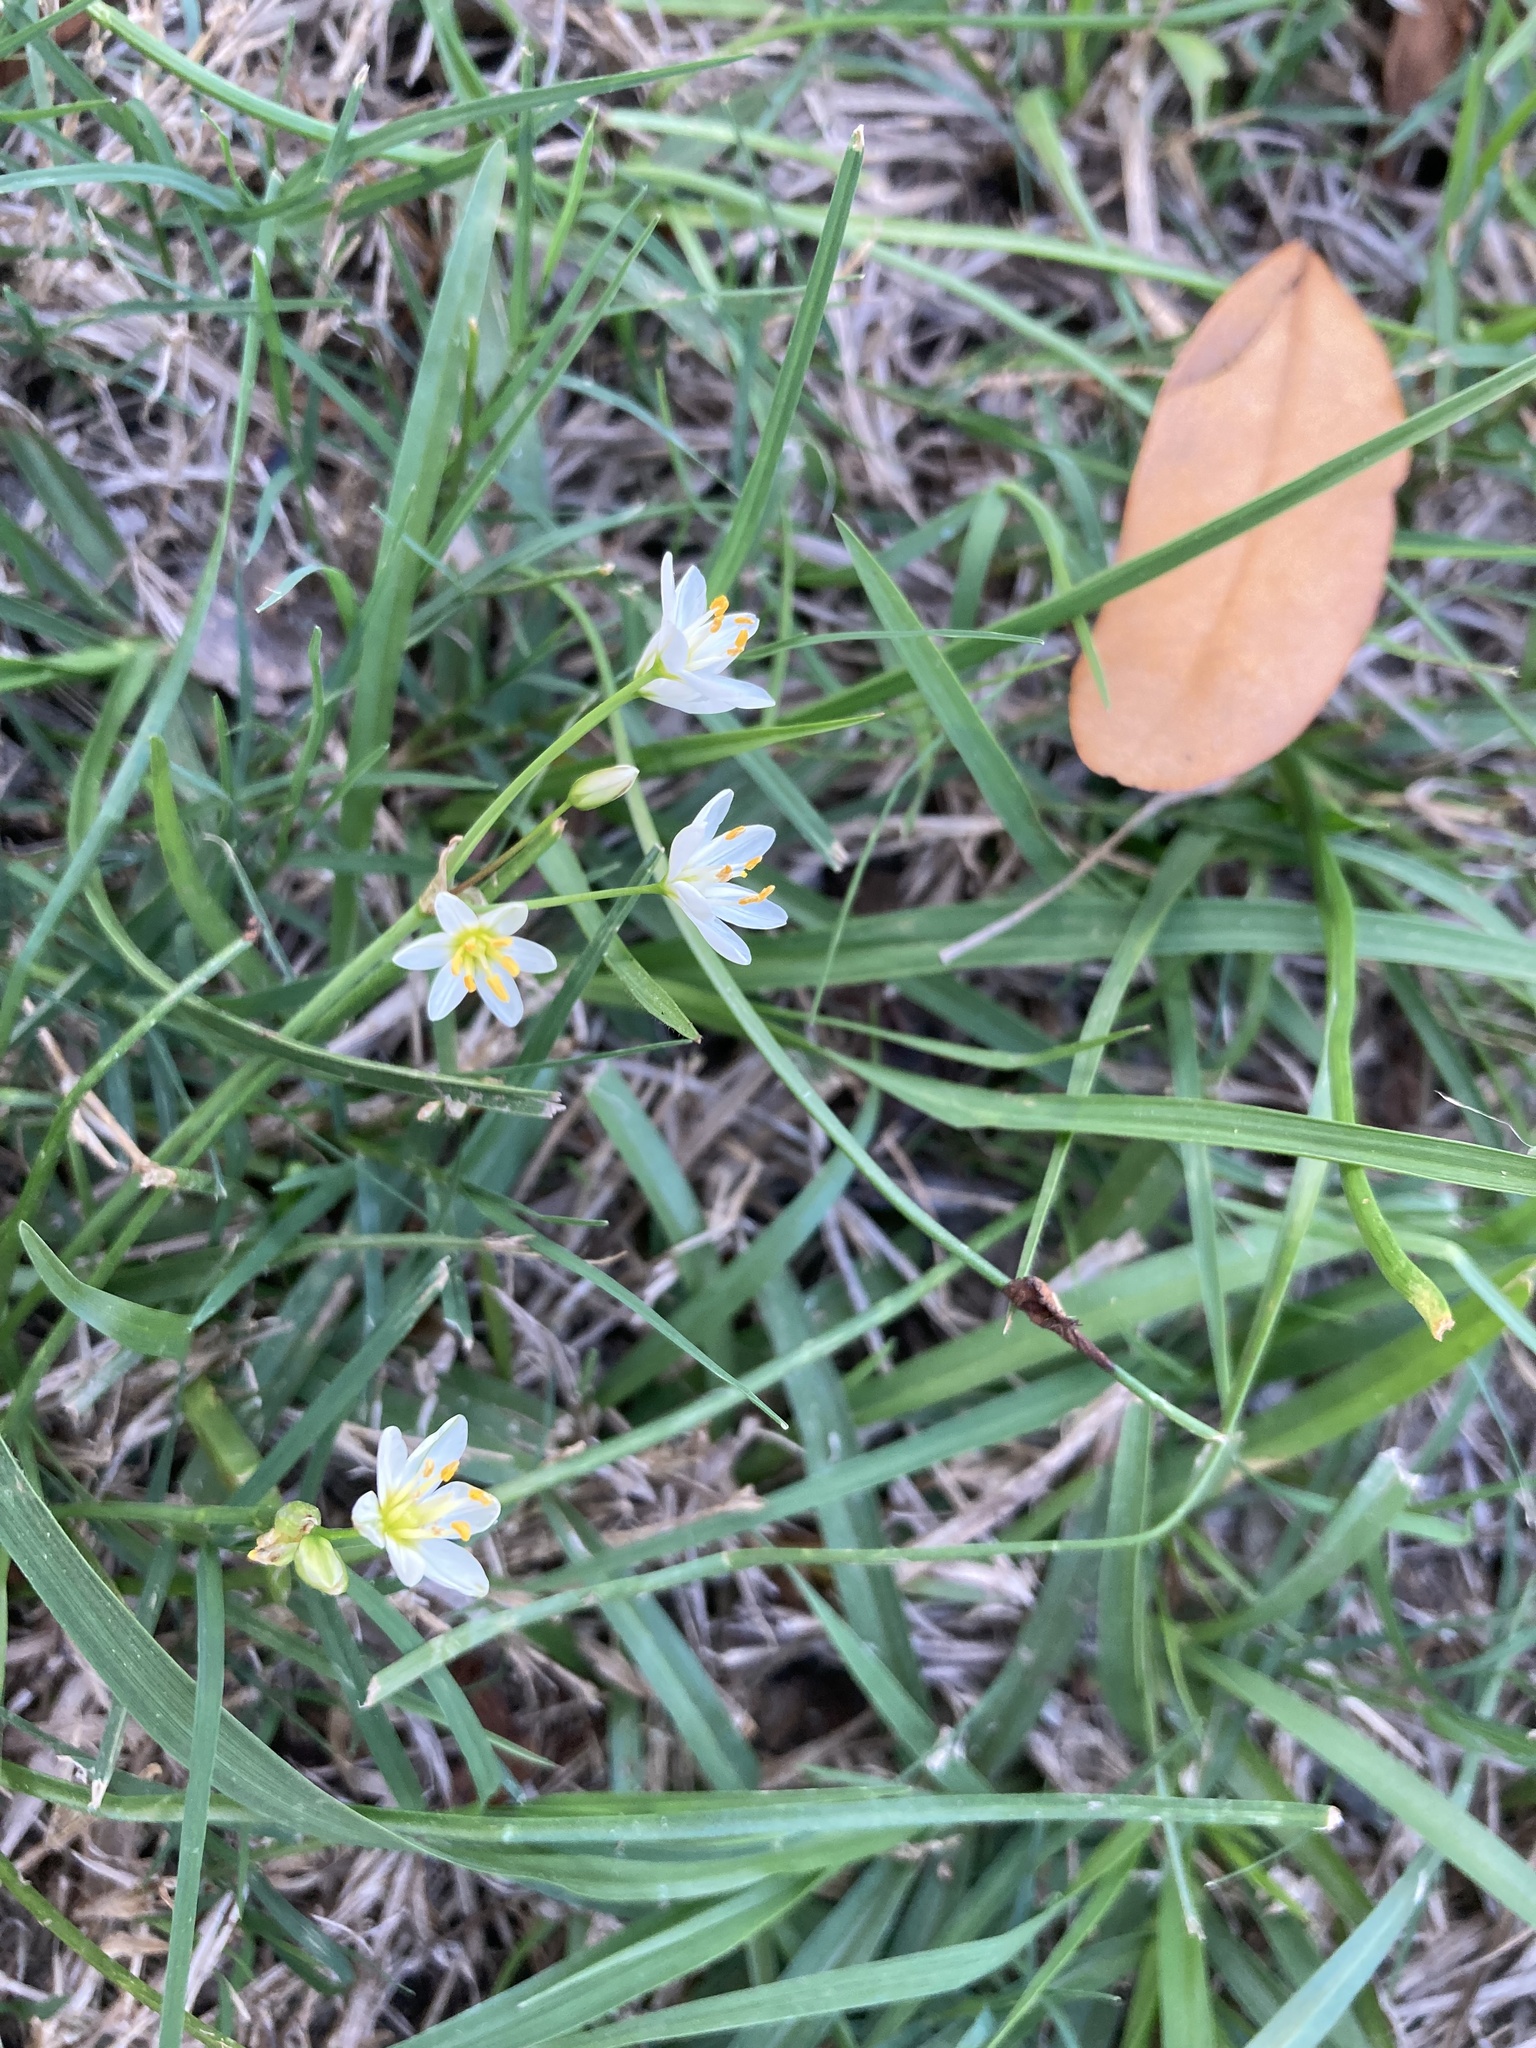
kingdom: Plantae
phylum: Tracheophyta
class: Liliopsida
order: Asparagales
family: Amaryllidaceae
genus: Nothoscordum
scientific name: Nothoscordum bivalve
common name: Crow-poison
